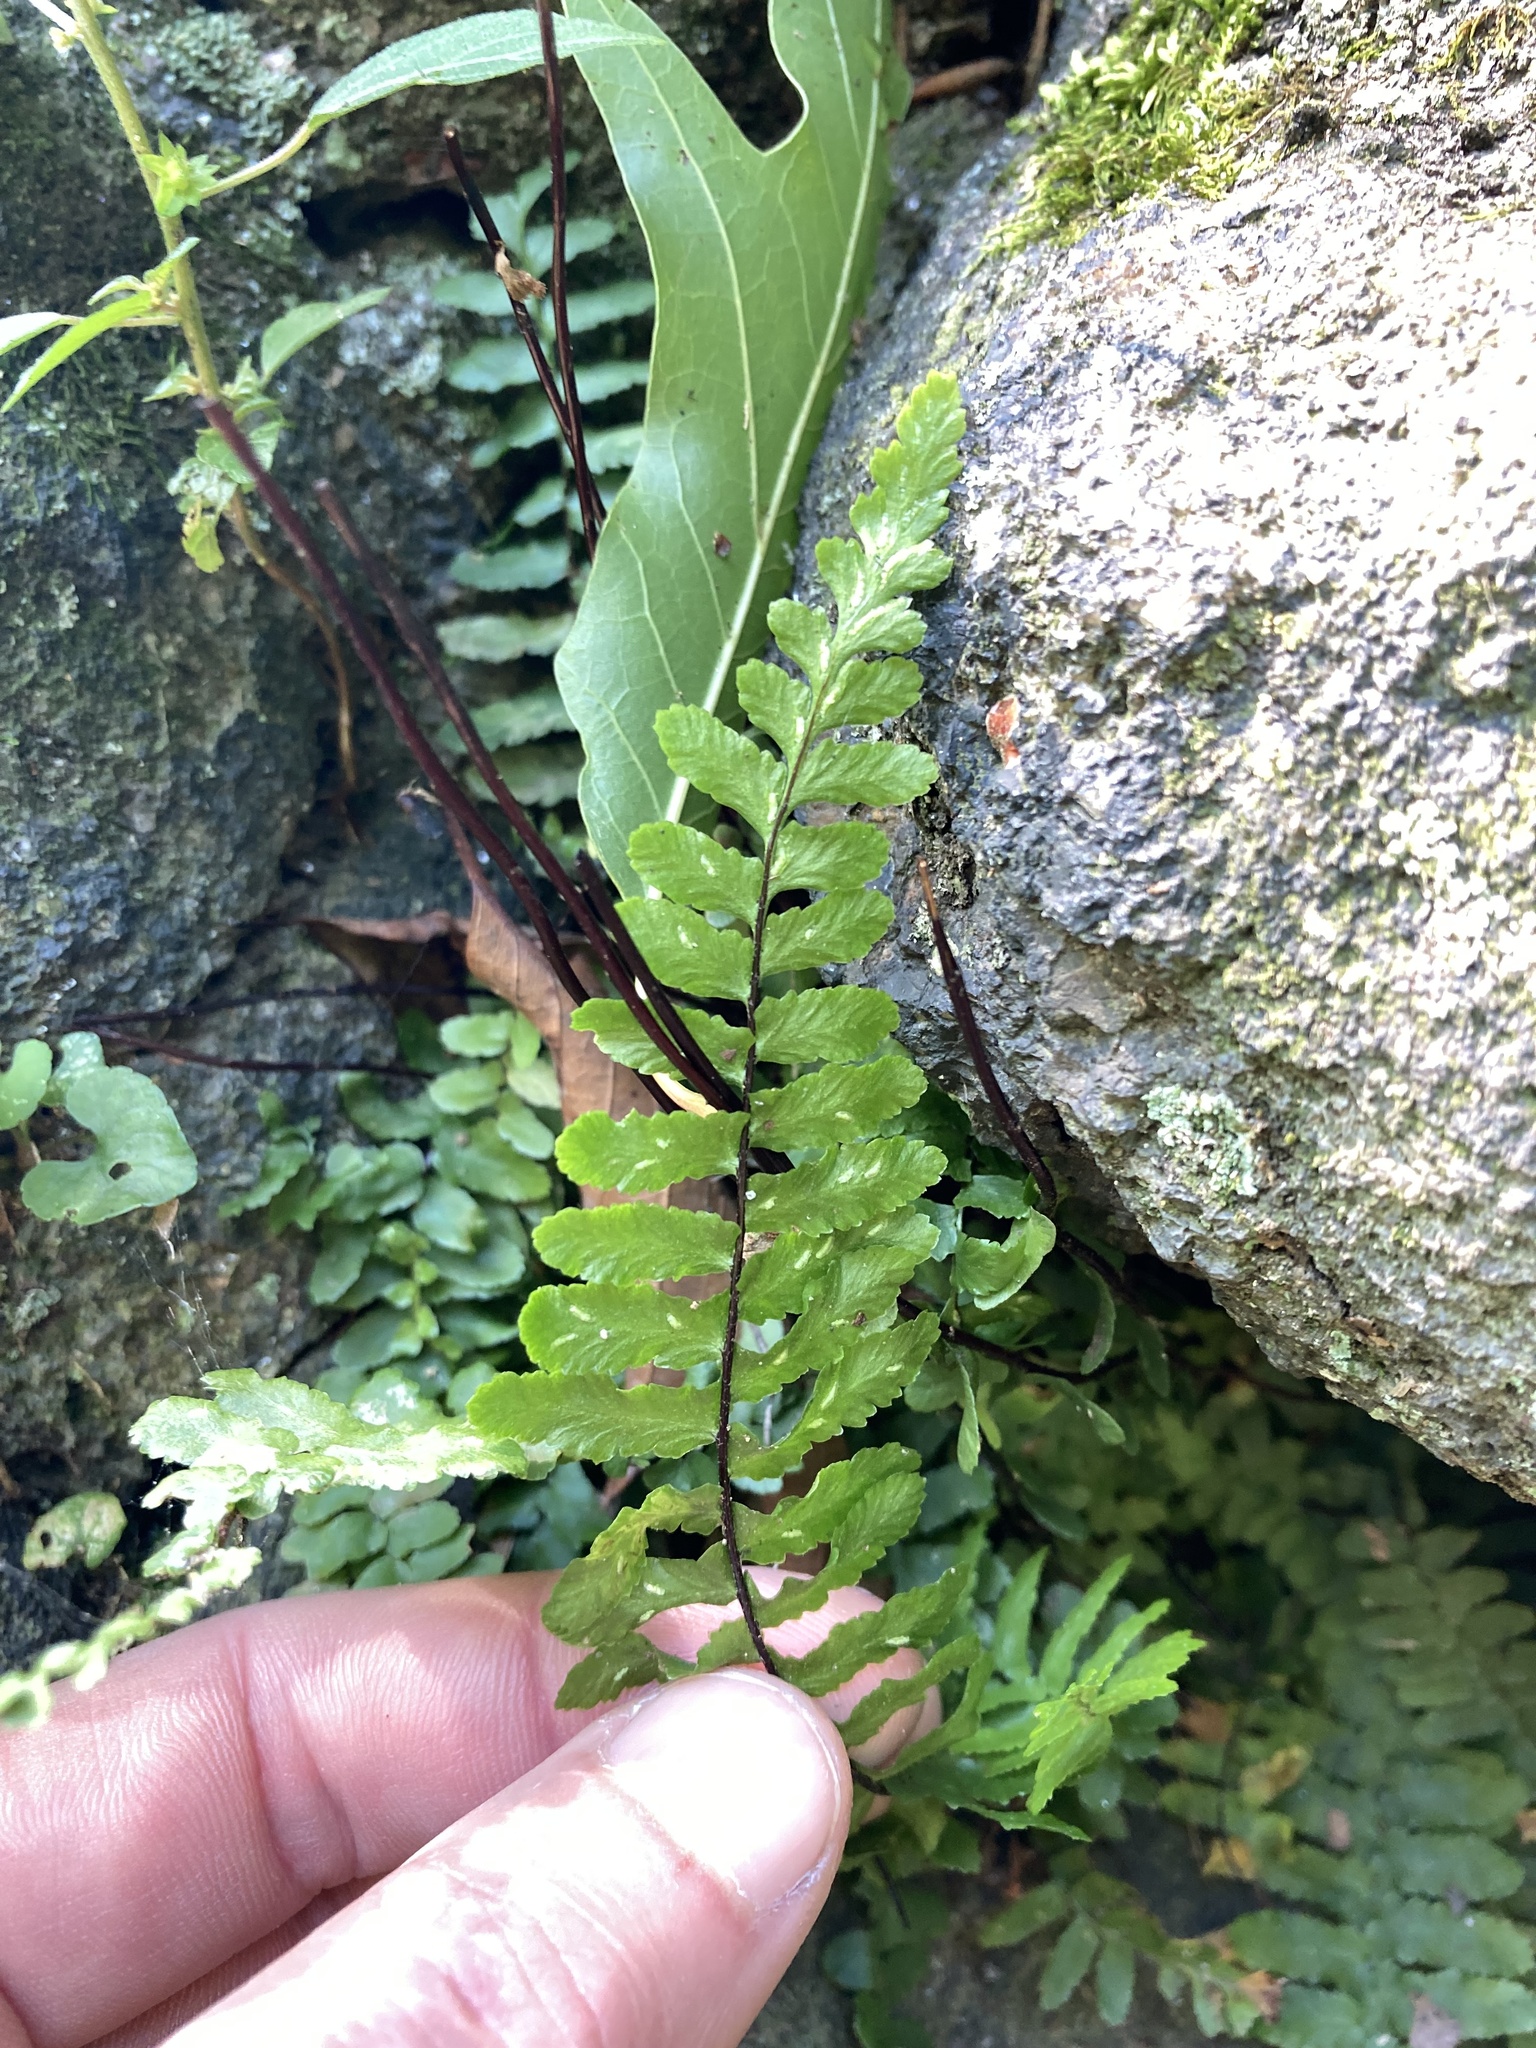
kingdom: Plantae
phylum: Tracheophyta
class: Polypodiopsida
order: Polypodiales
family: Aspleniaceae
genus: Asplenium
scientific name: Asplenium platyneuron
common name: Ebony spleenwort
